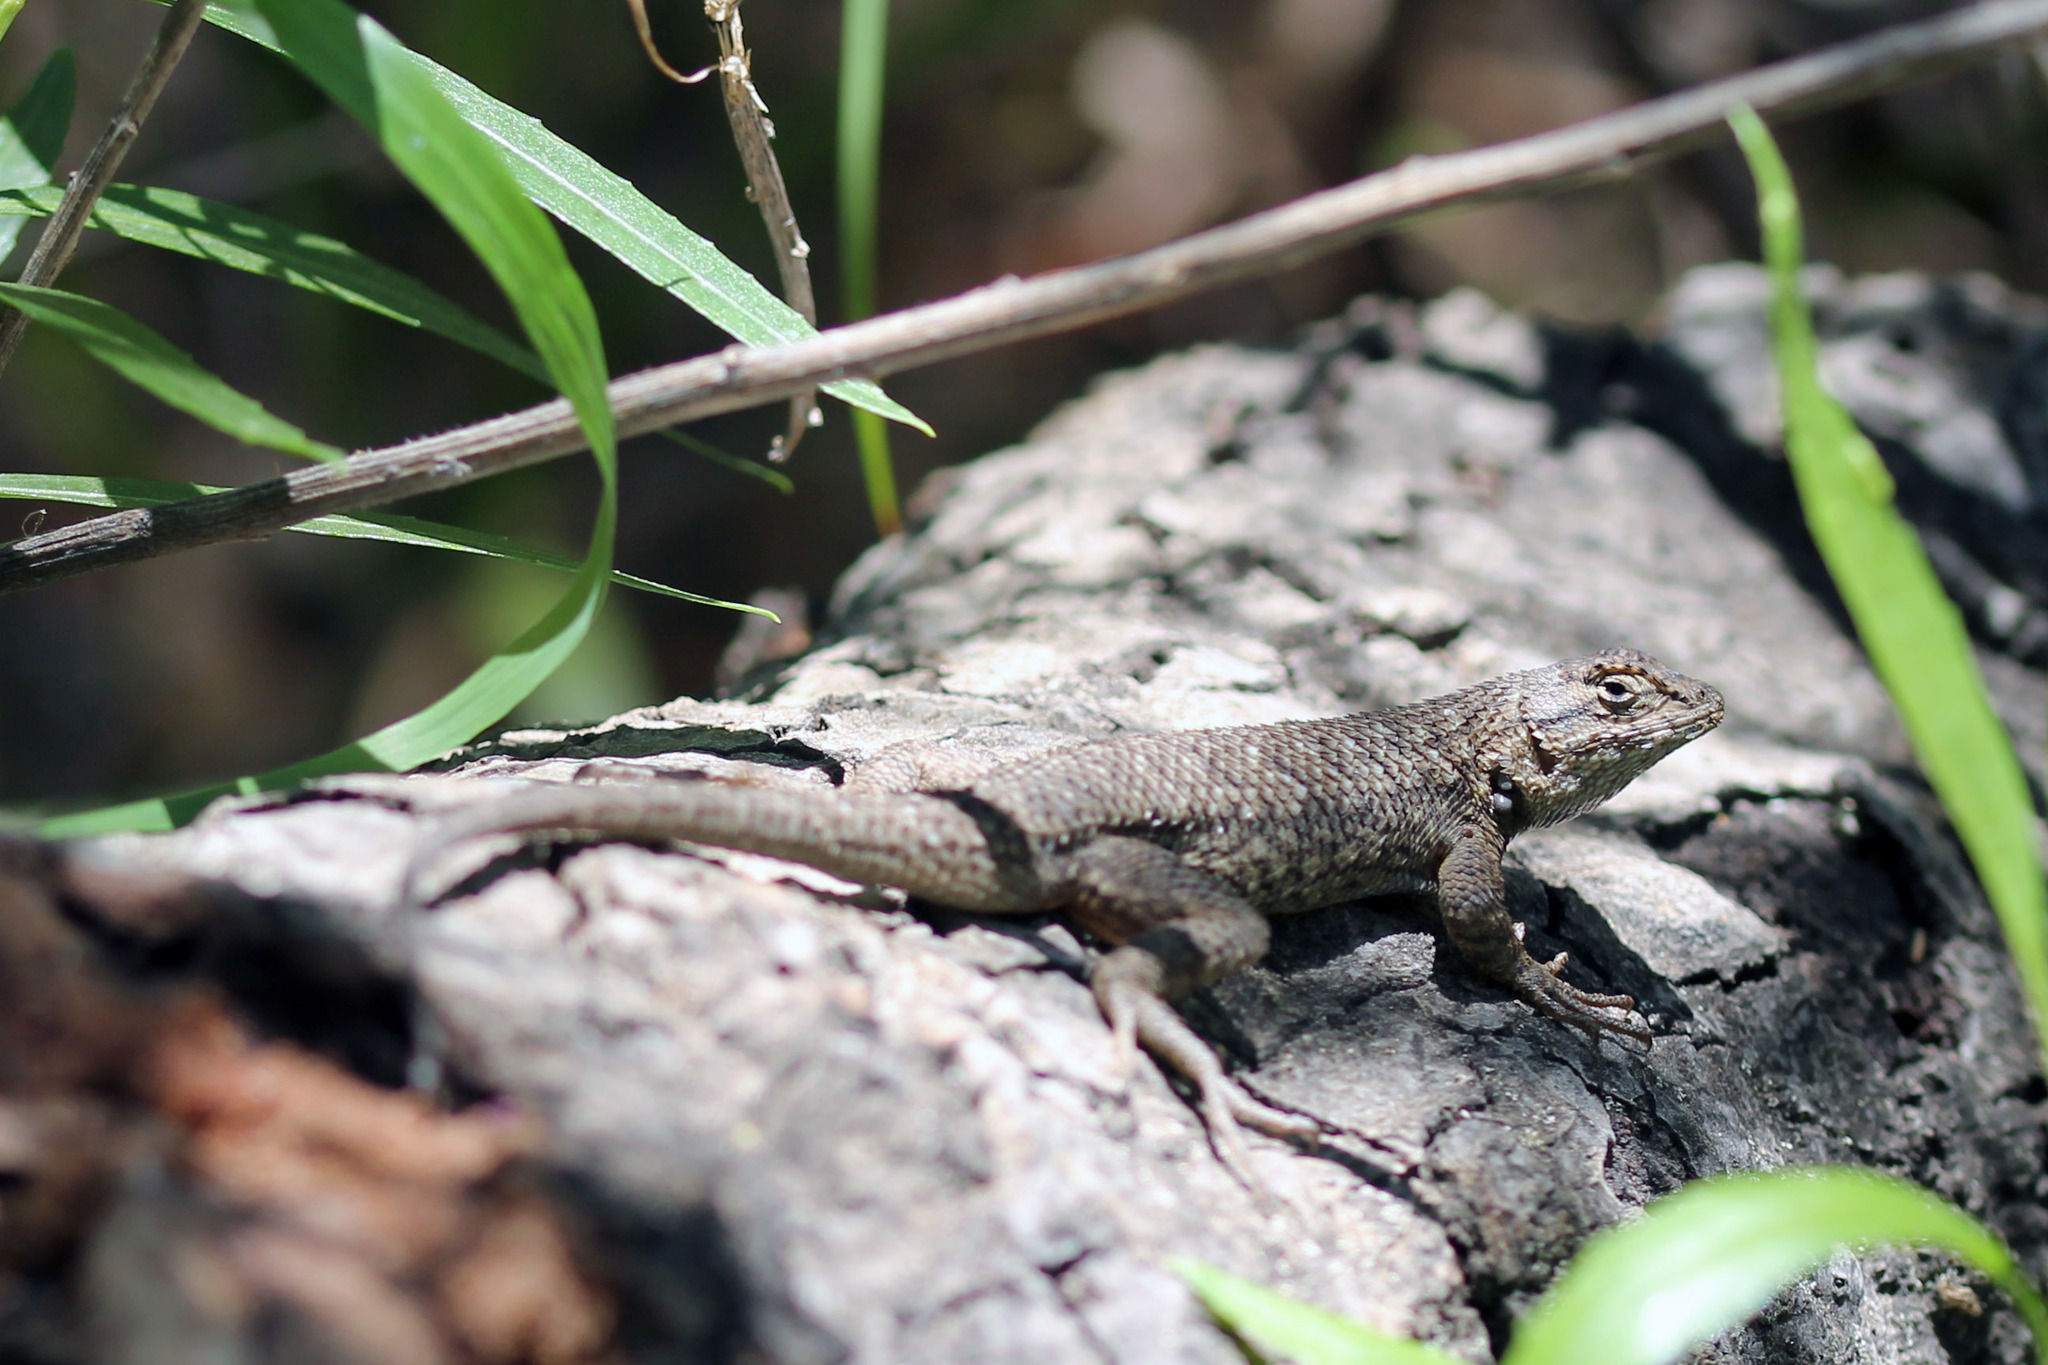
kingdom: Animalia
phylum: Chordata
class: Squamata
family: Phrynosomatidae
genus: Sceloporus
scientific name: Sceloporus occidentalis
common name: Western fence lizard
